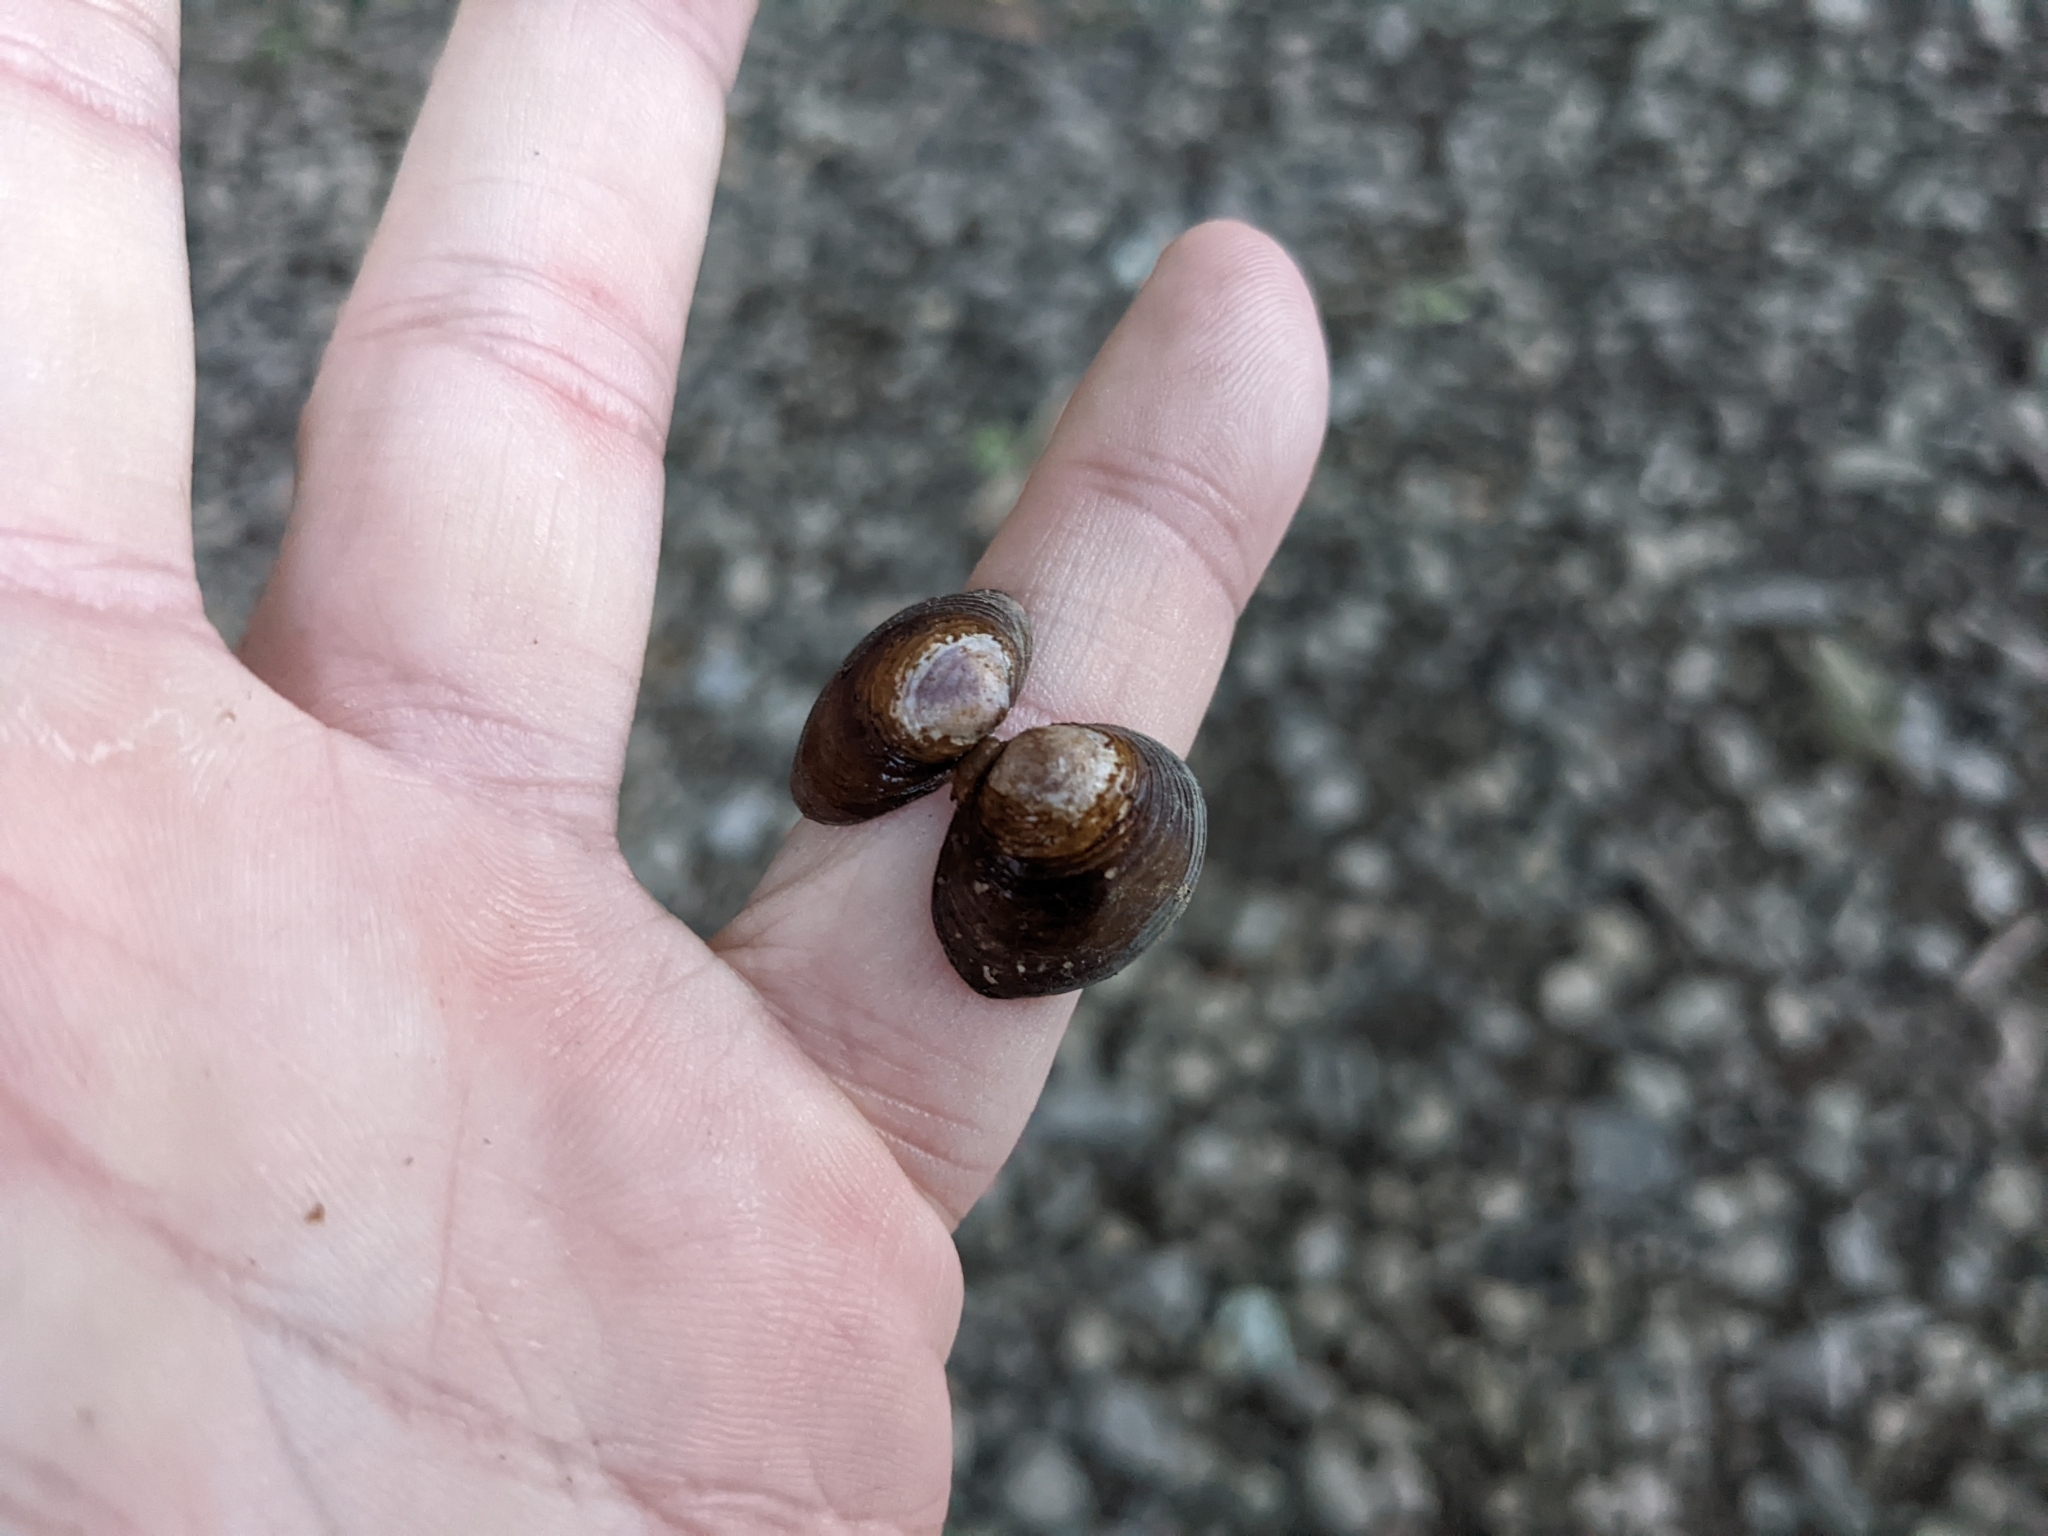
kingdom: Animalia
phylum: Mollusca
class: Bivalvia
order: Venerida
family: Cyrenidae
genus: Corbicula
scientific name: Corbicula fluminea
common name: Asian clam
